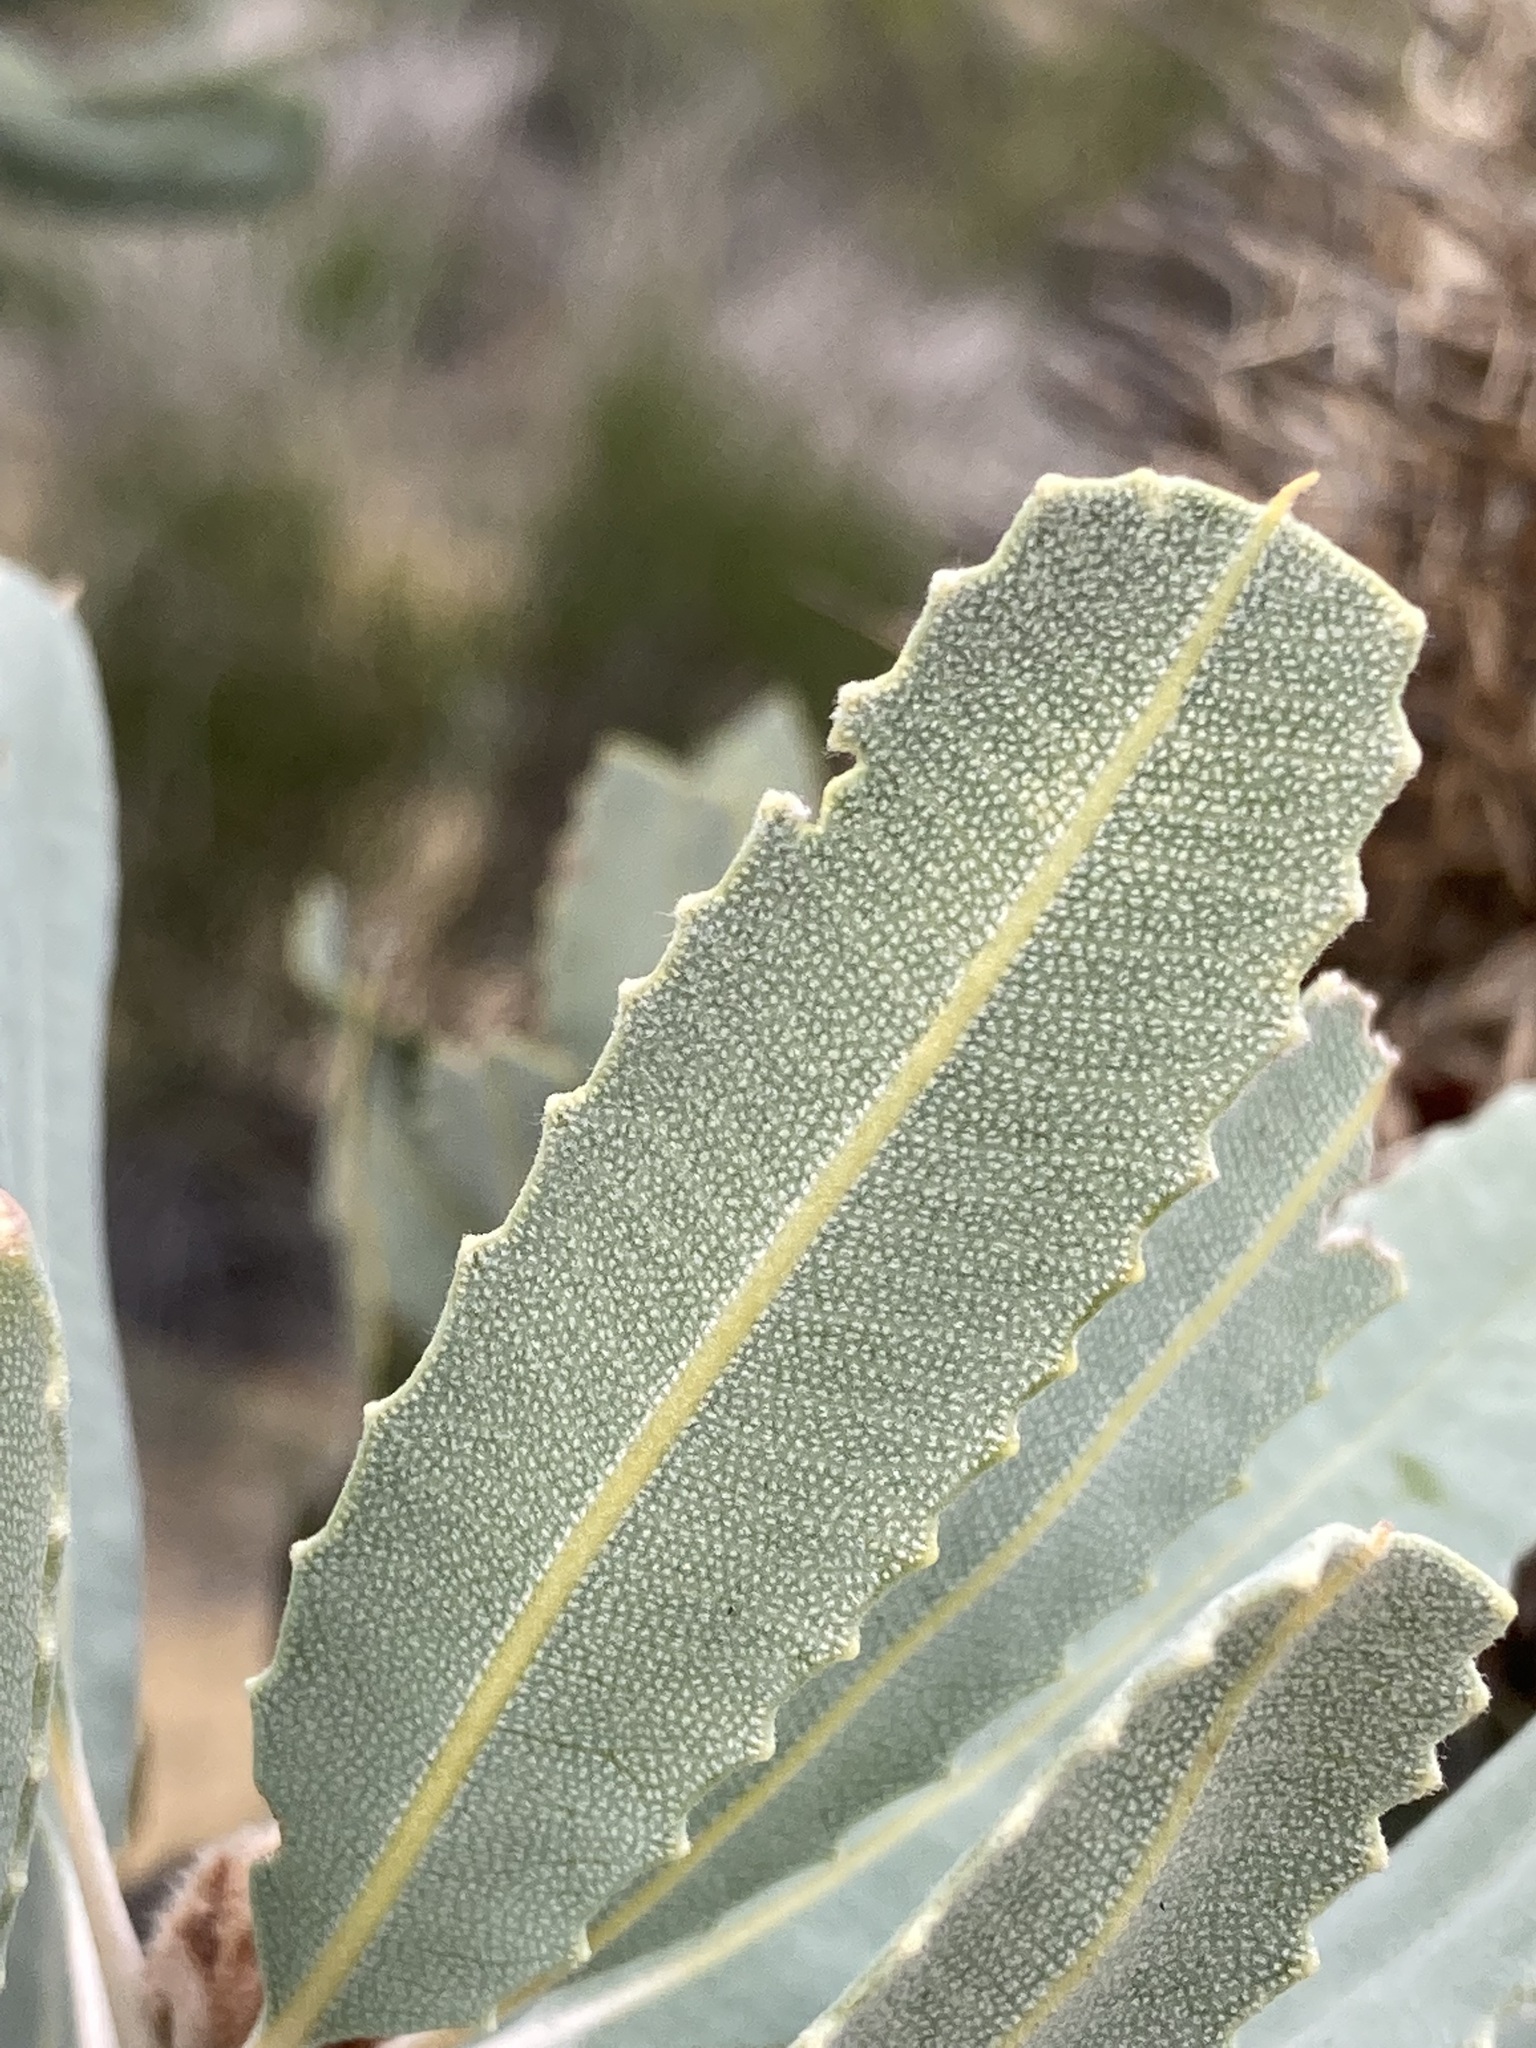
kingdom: Plantae
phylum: Tracheophyta
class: Magnoliopsida
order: Proteales
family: Proteaceae
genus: Banksia
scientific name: Banksia sceptrum
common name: Sceptre banksia
